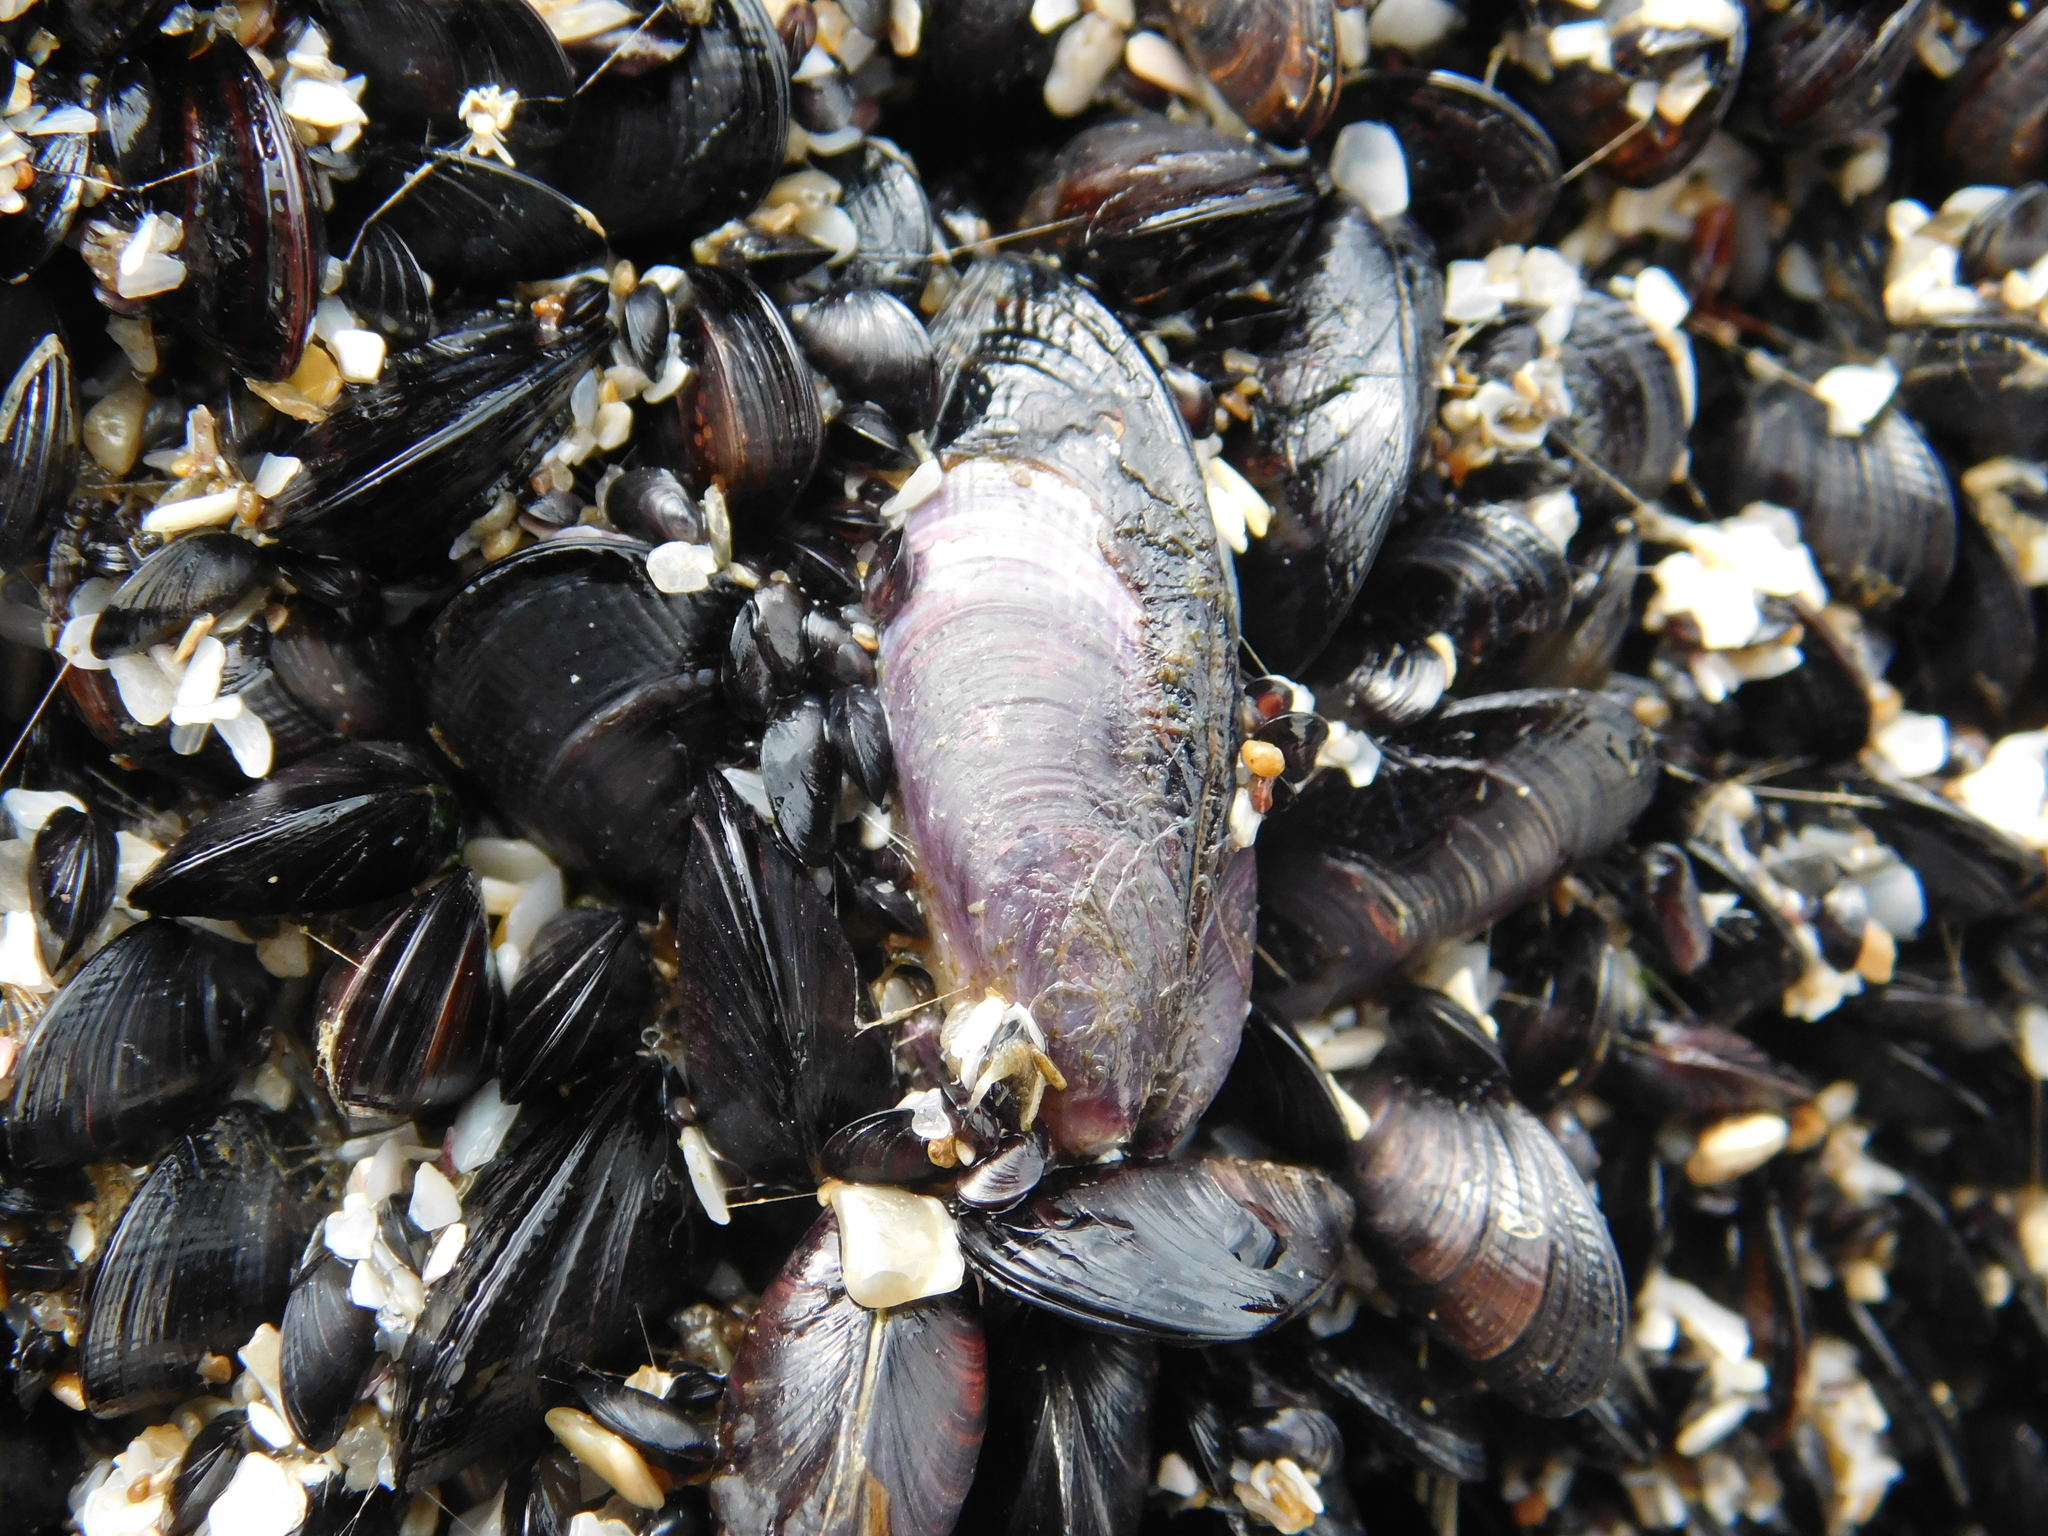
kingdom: Animalia
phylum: Mollusca
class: Bivalvia
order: Mytilida
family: Mytilidae
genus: Brachidontes
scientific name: Brachidontes rodriguezii
